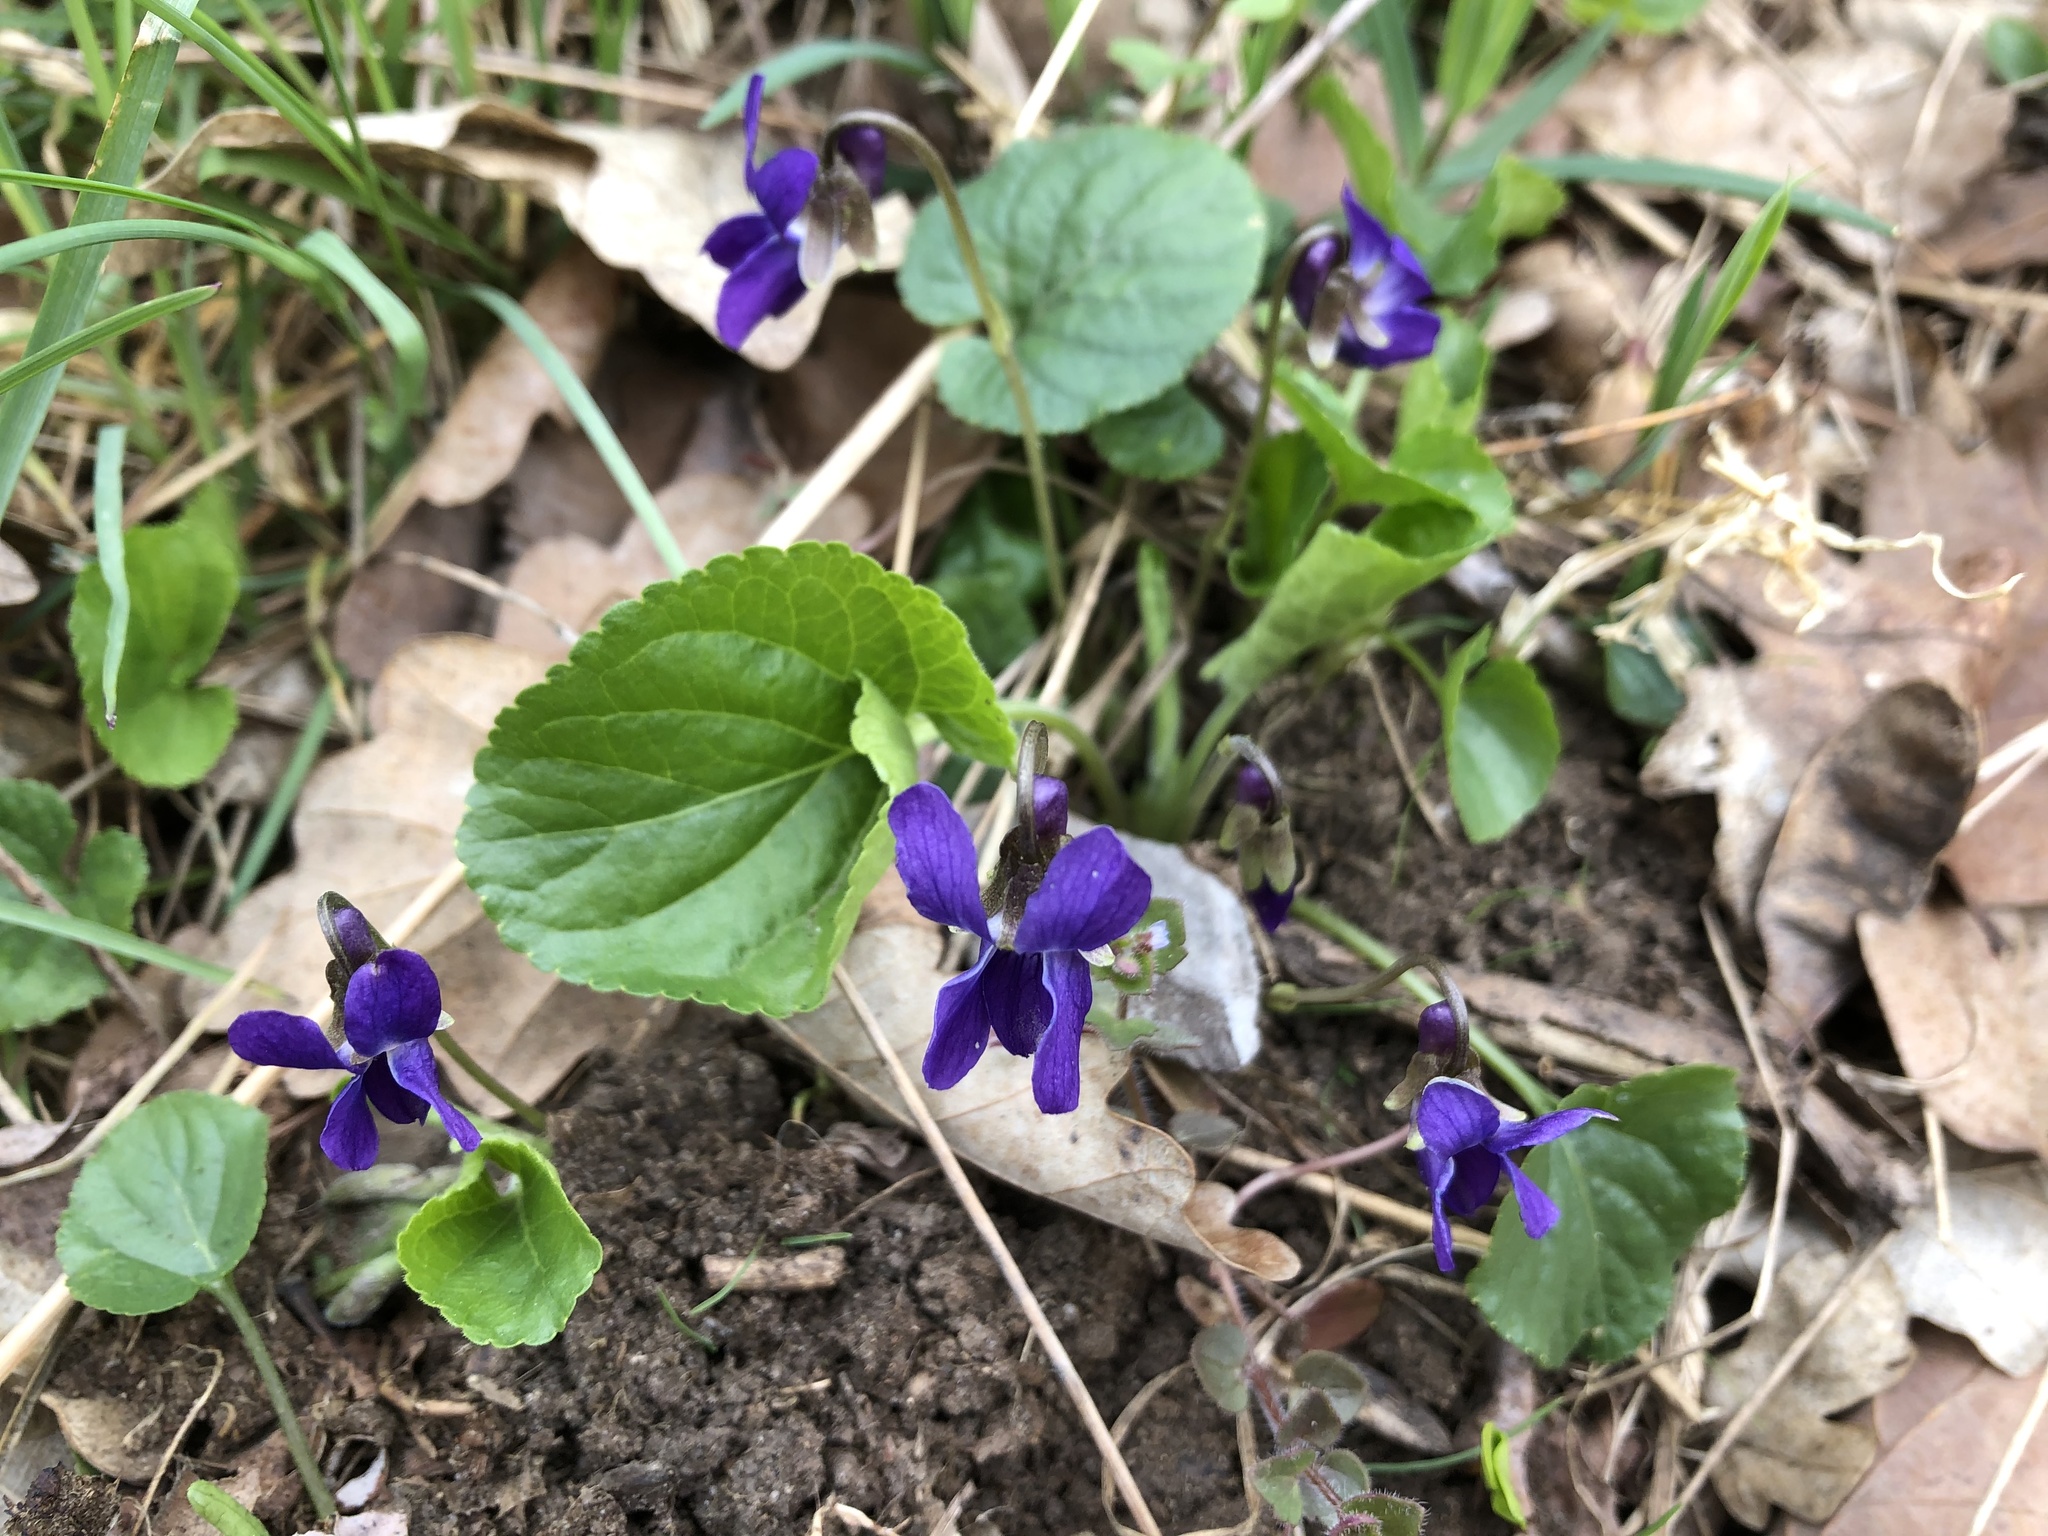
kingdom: Plantae
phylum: Tracheophyta
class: Magnoliopsida
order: Malpighiales
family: Violaceae
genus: Viola
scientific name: Viola odorata
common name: Sweet violet
